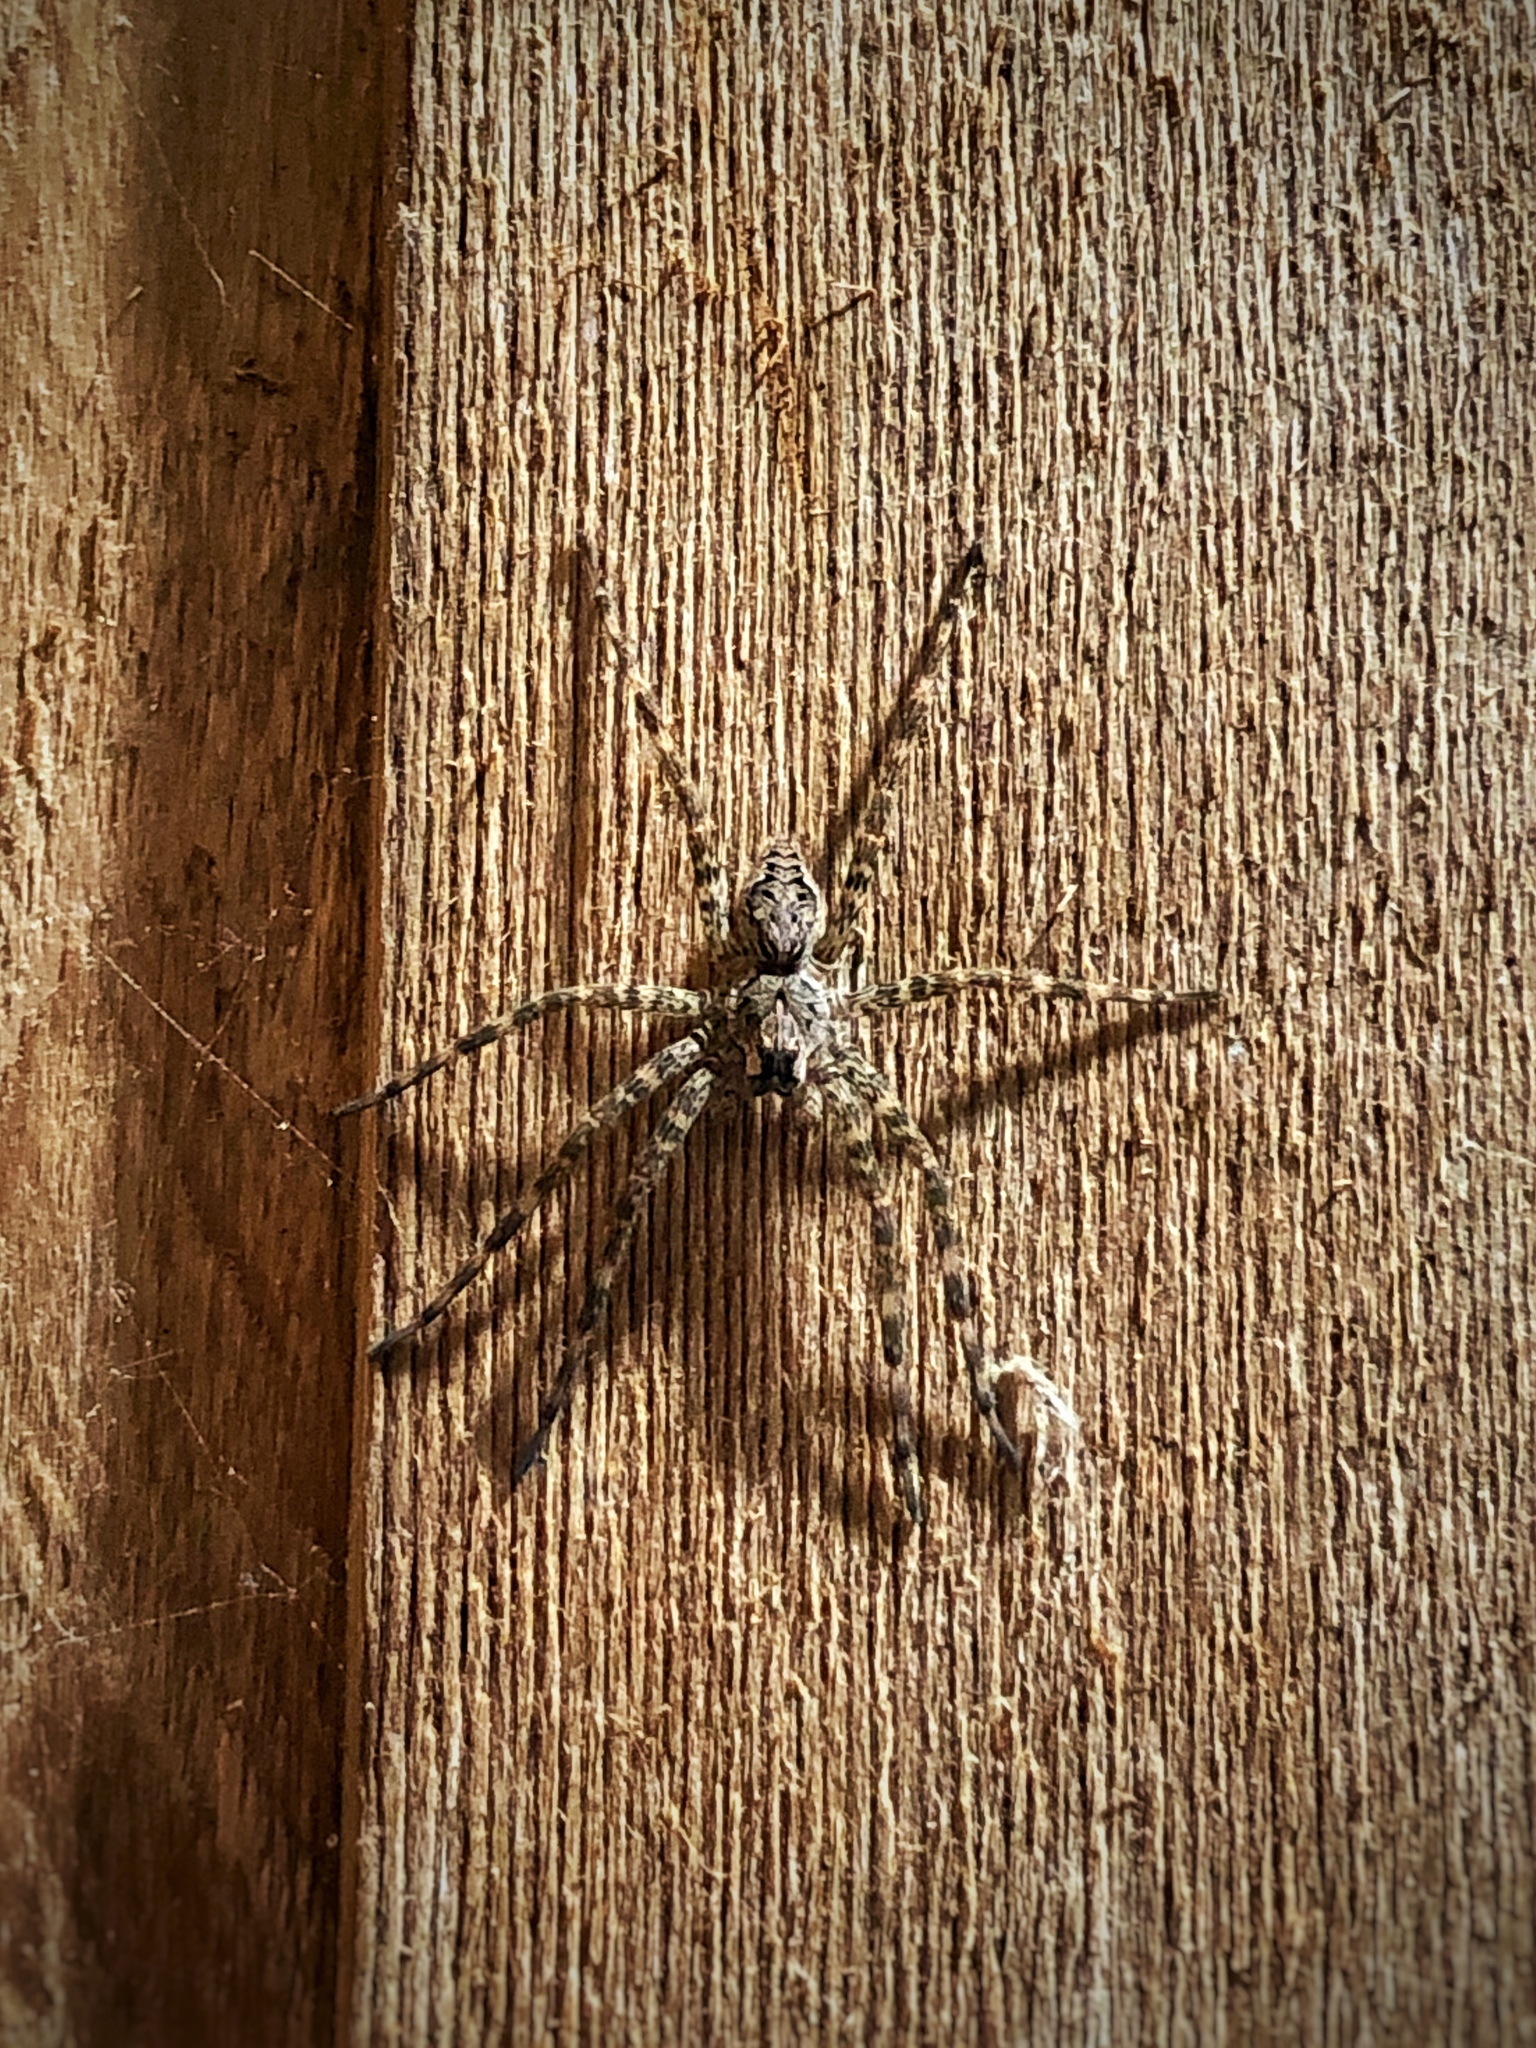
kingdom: Animalia
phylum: Arthropoda
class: Arachnida
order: Araneae
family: Pisauridae
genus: Dolomedes
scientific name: Dolomedes tenebrosus
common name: Dark fishing spider
